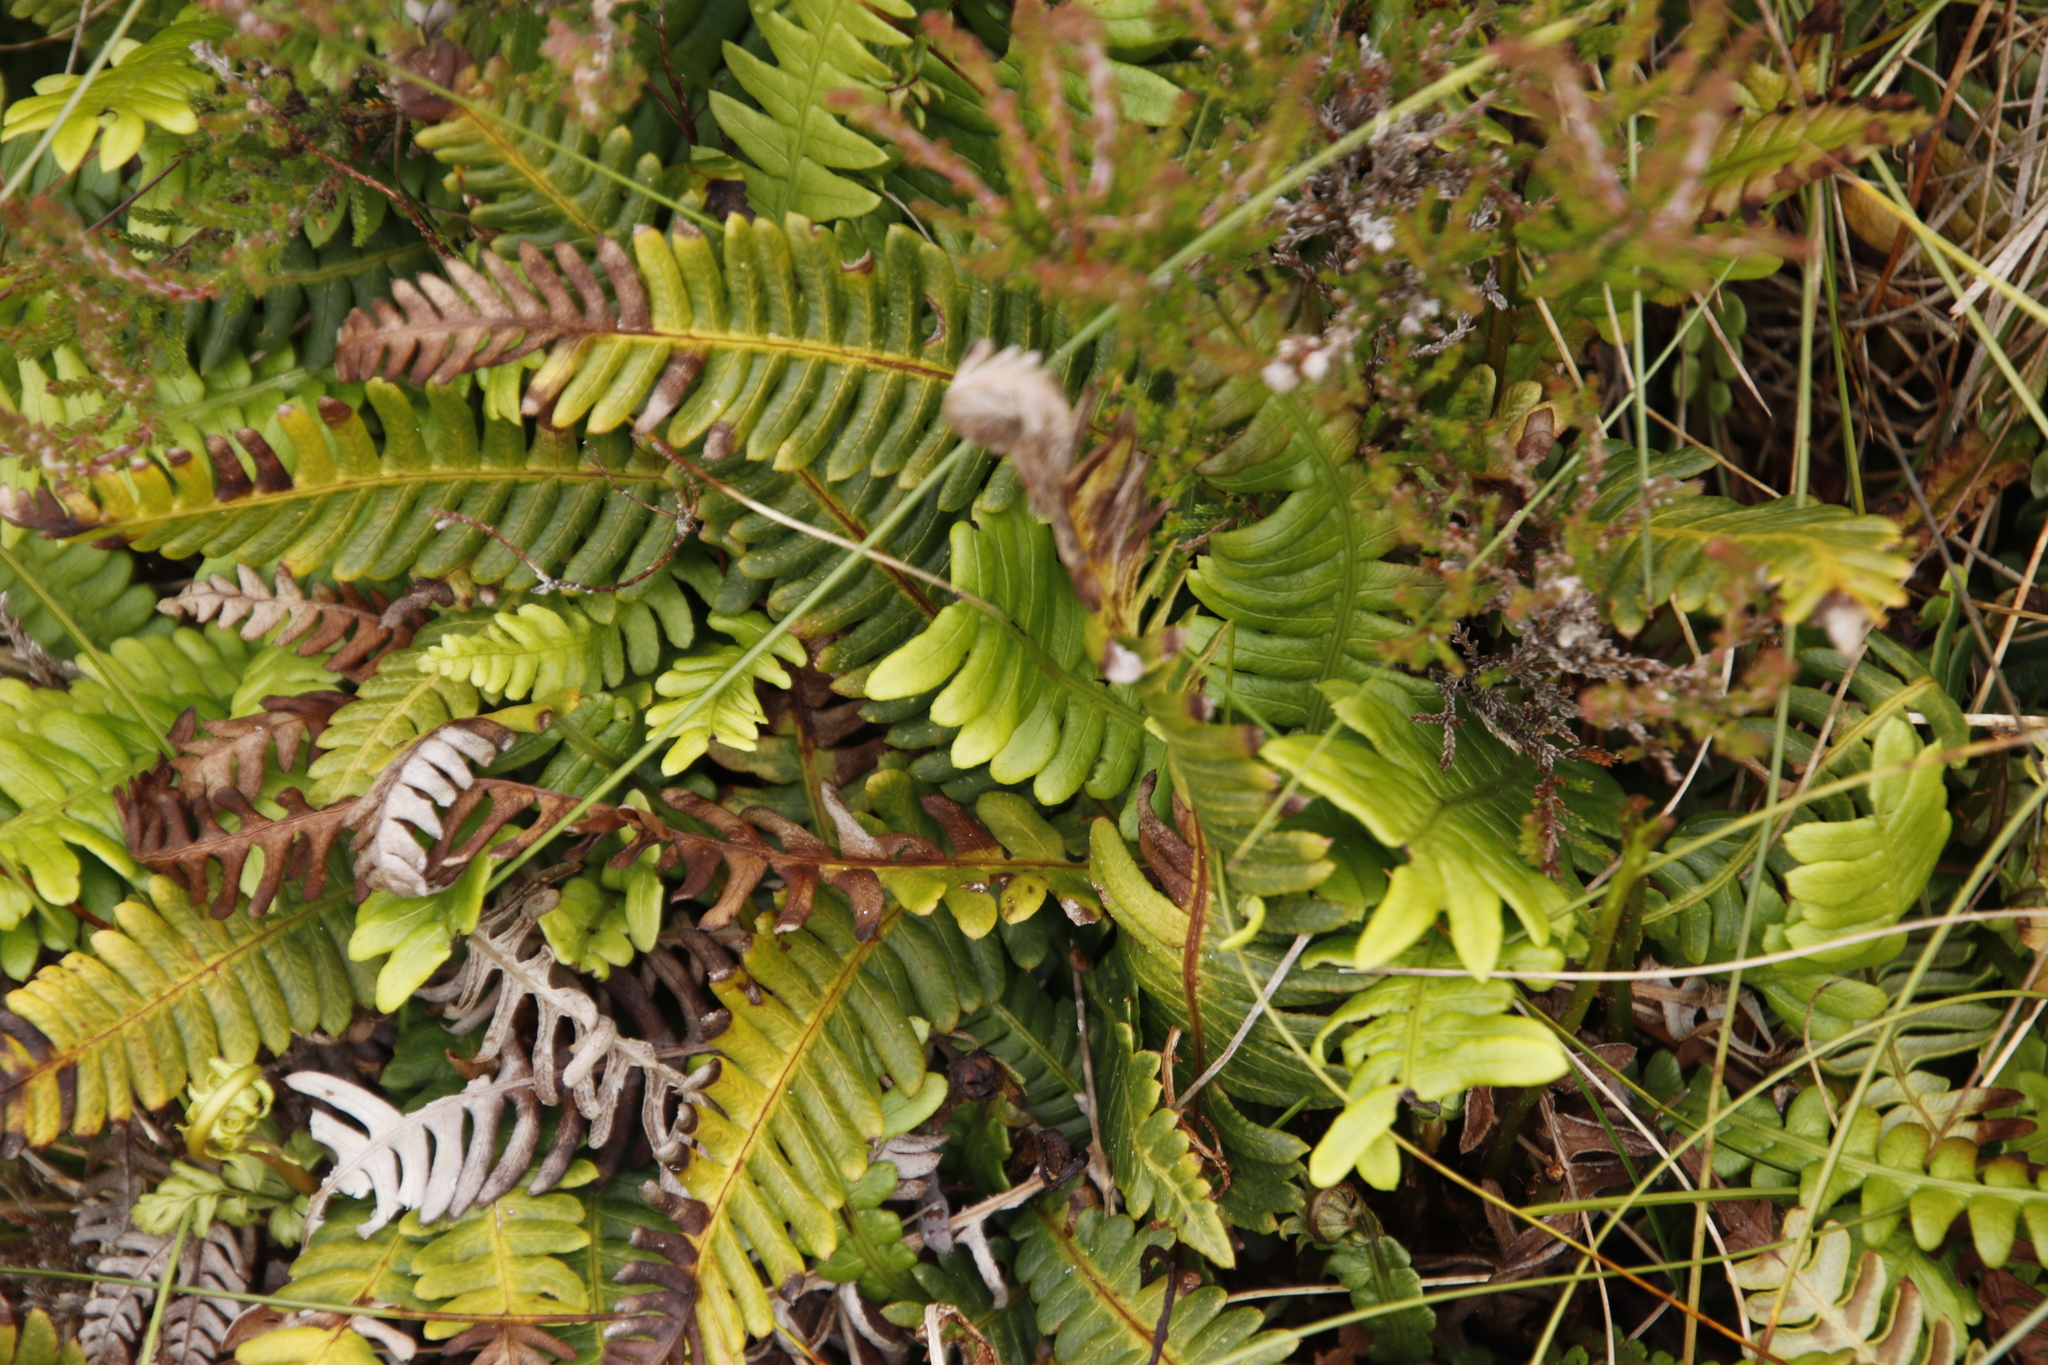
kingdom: Plantae
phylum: Tracheophyta
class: Polypodiopsida
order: Polypodiales
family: Polypodiaceae
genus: Polypodium
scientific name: Polypodium vulgare
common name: Common polypody
